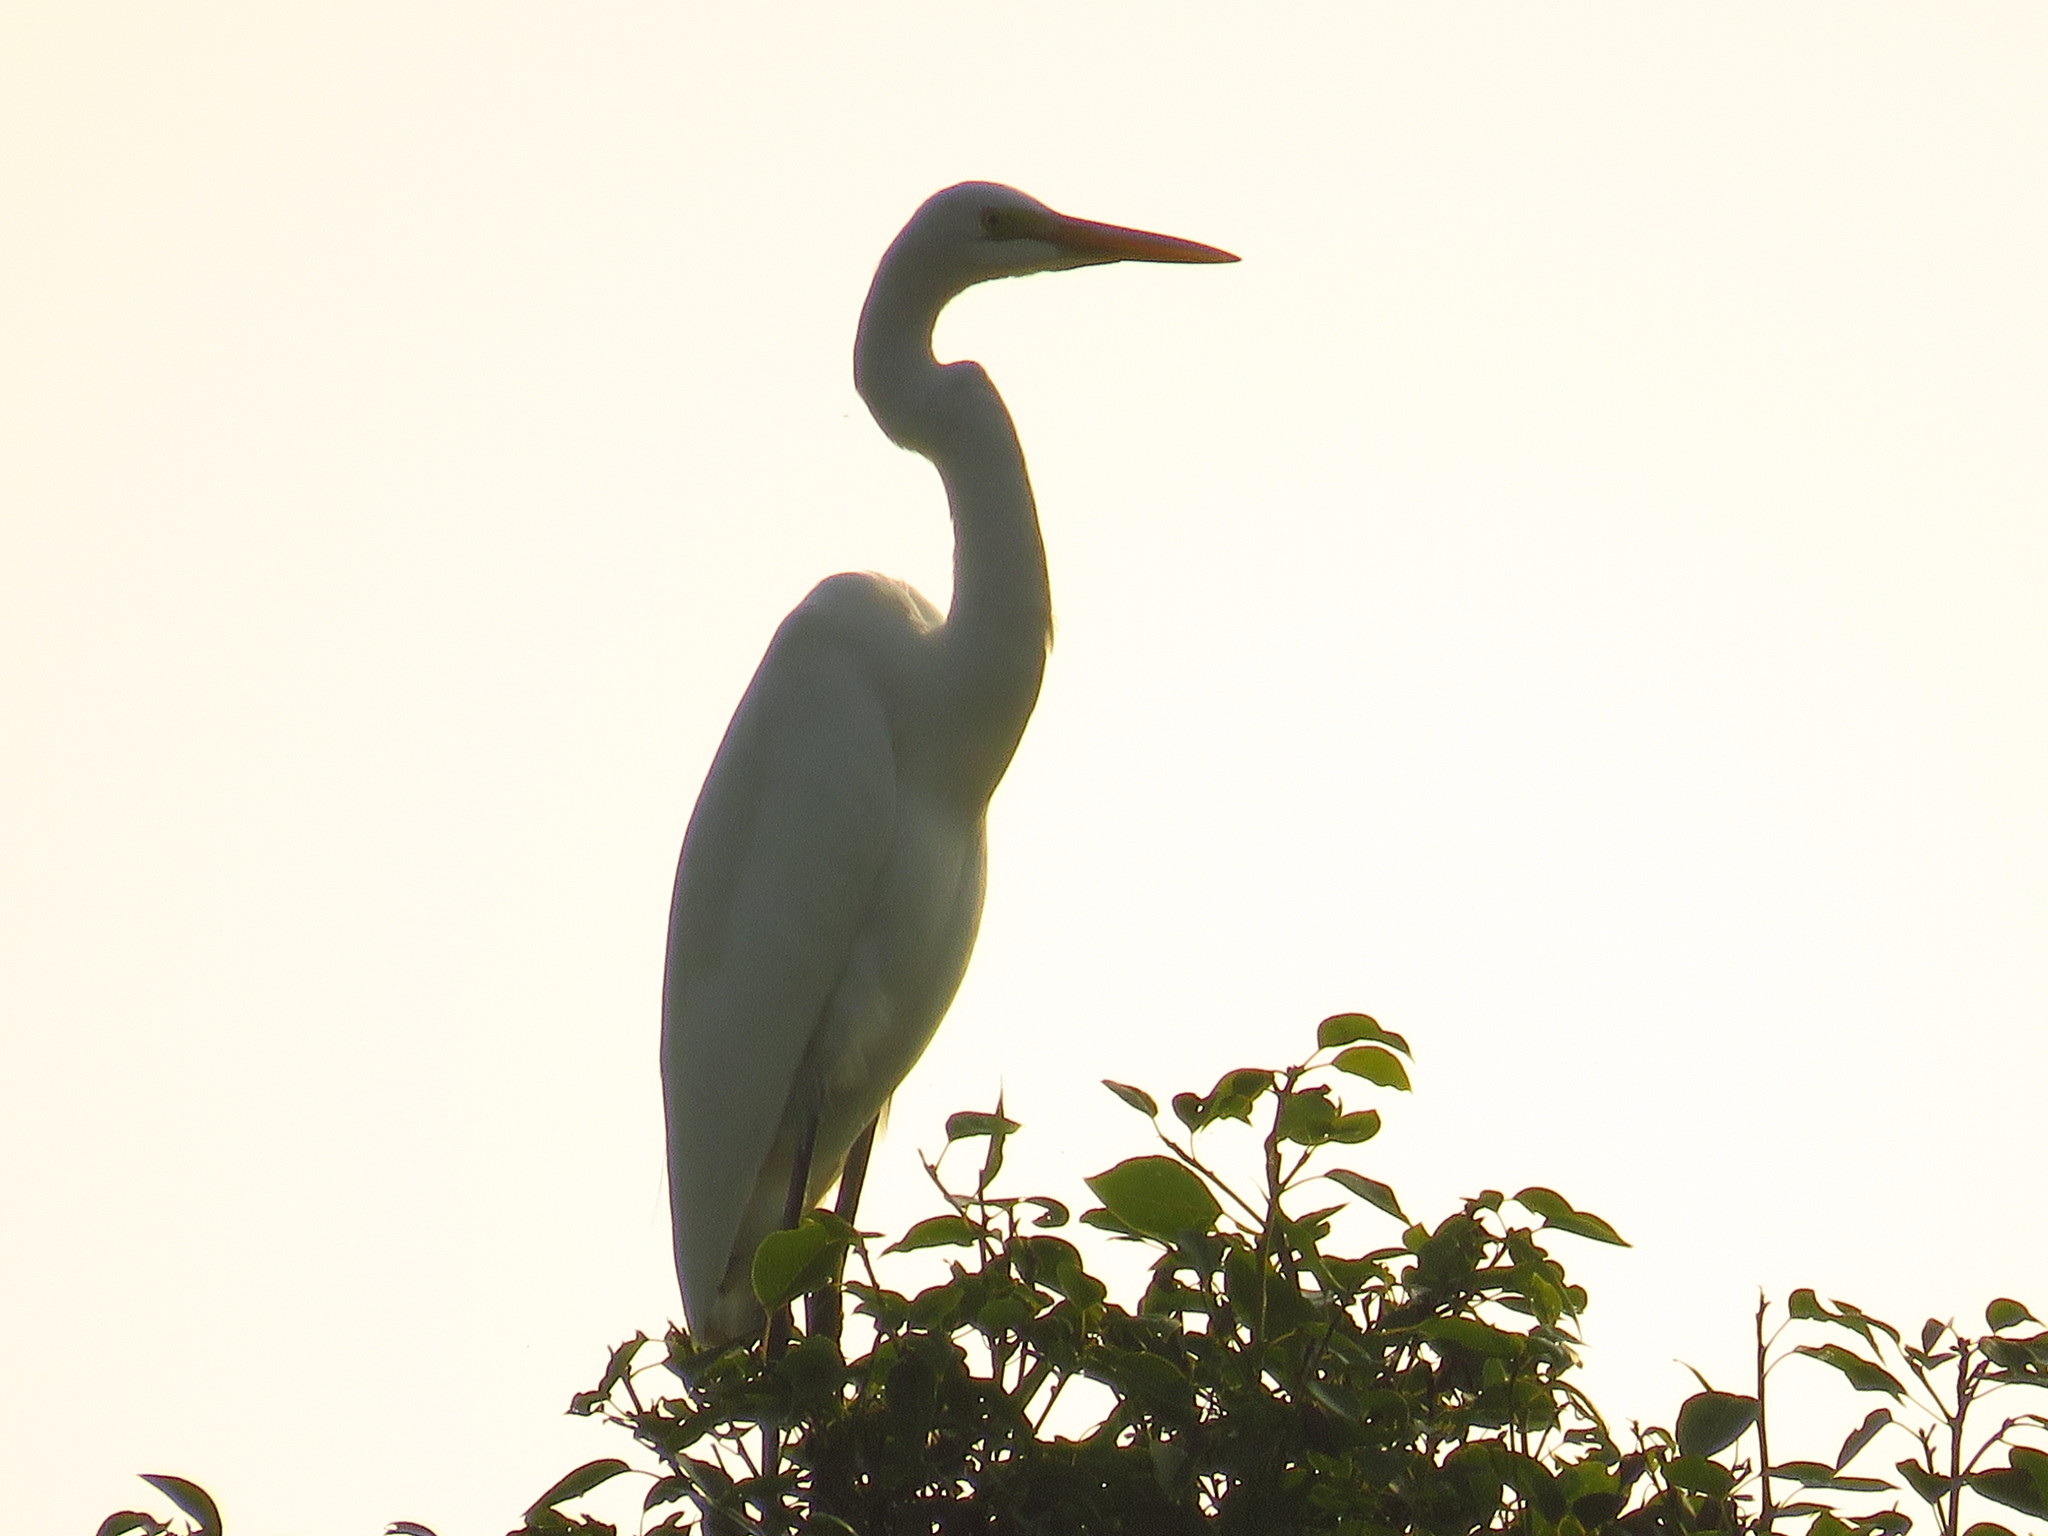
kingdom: Animalia
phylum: Chordata
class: Aves
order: Pelecaniformes
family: Ardeidae
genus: Ardea
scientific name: Ardea alba
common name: Great egret
